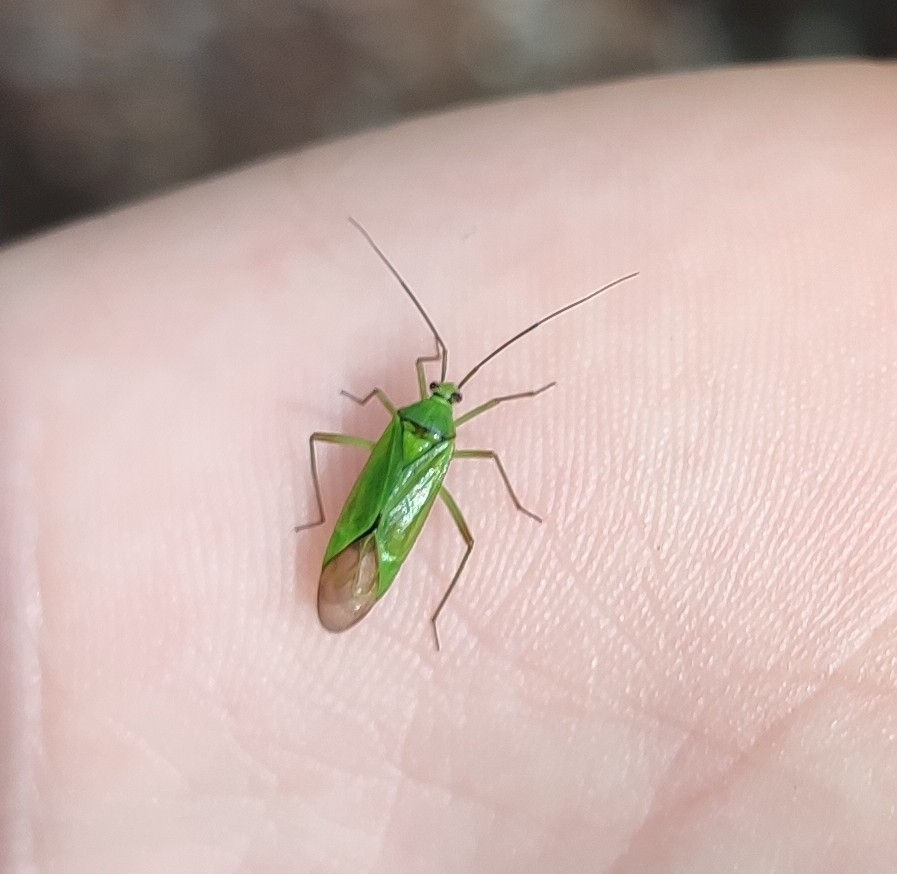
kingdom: Animalia
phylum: Arthropoda
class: Insecta
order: Hemiptera
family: Miridae
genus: Calocoris
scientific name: Calocoris alpestris
